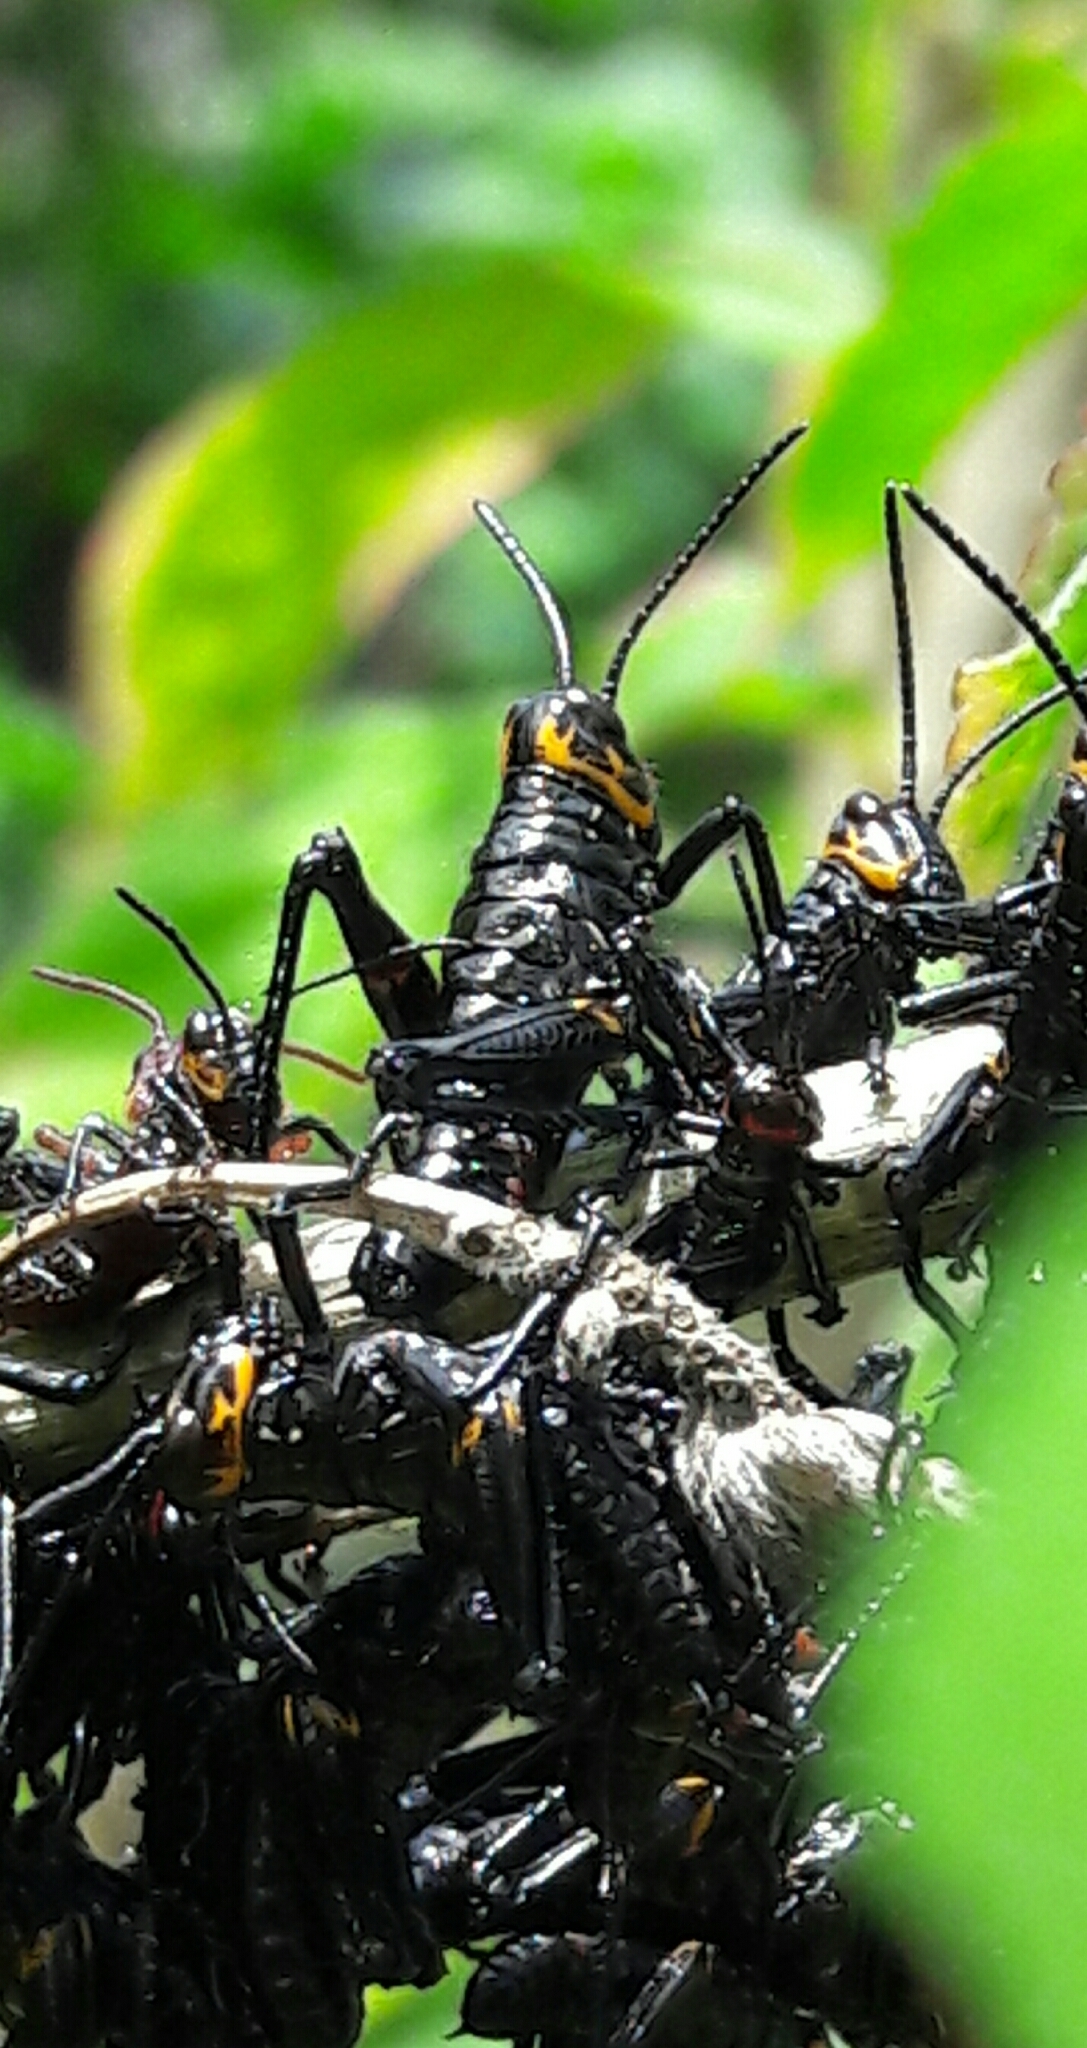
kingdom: Animalia
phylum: Arthropoda
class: Insecta
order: Orthoptera
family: Romaleidae
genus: Chromacris
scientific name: Chromacris speciosa
